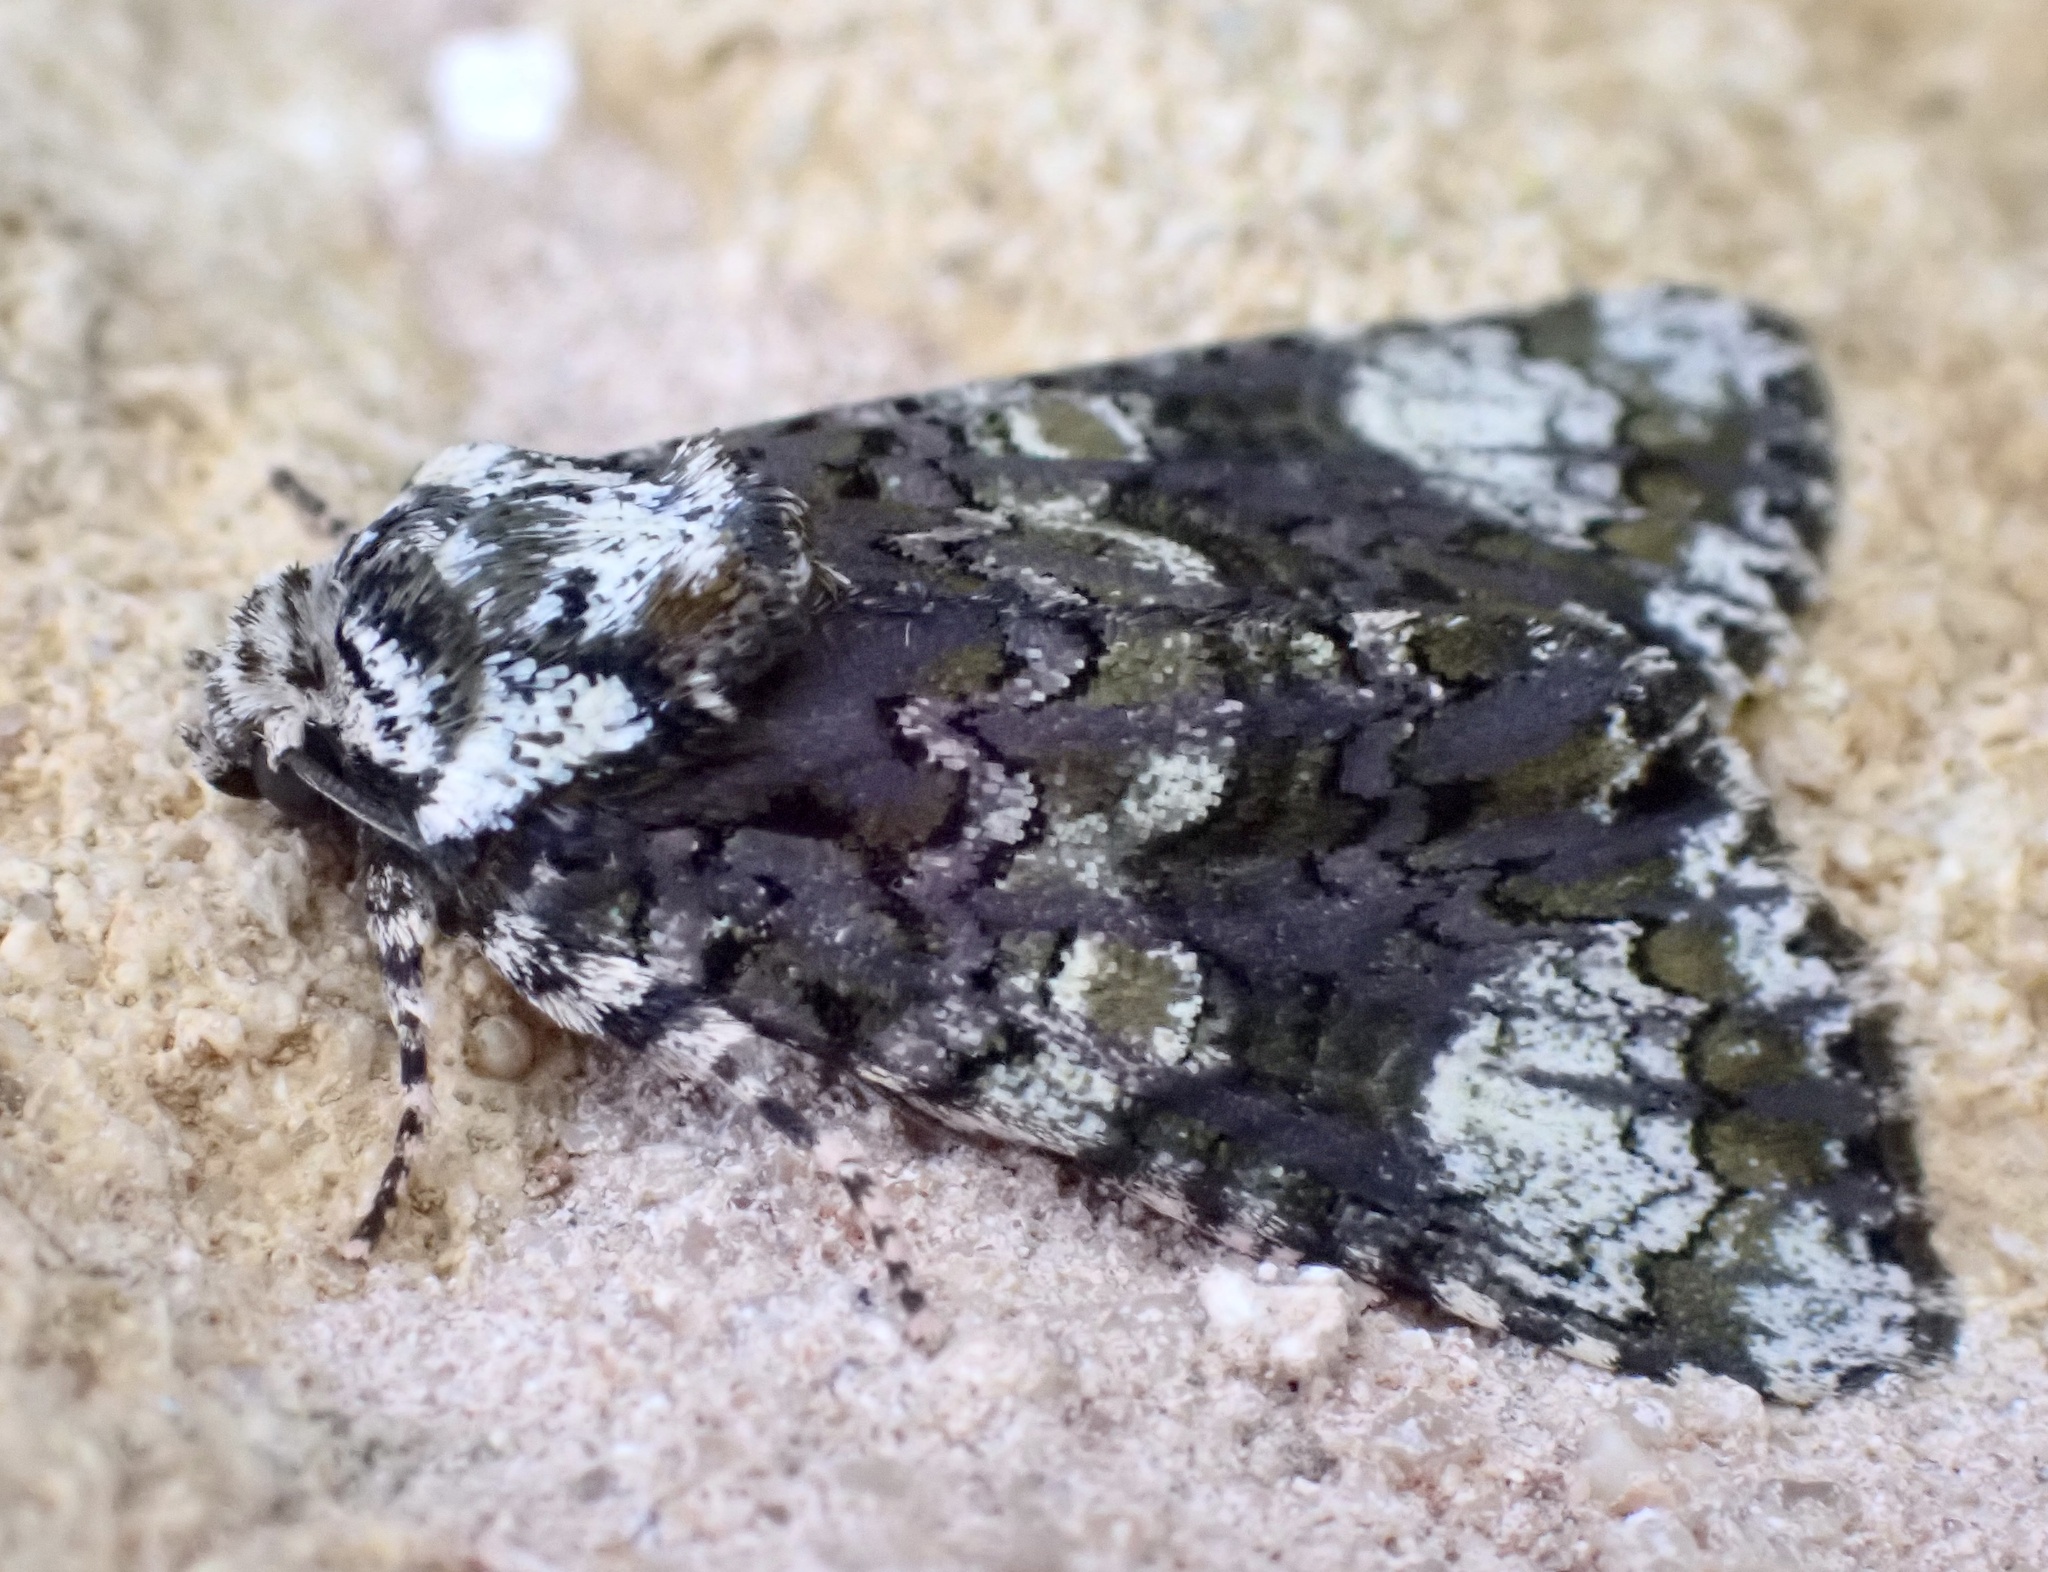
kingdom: Animalia
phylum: Arthropoda
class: Insecta
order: Lepidoptera
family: Noctuidae
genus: Craniophora
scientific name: Craniophora ligustri
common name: Coronet
